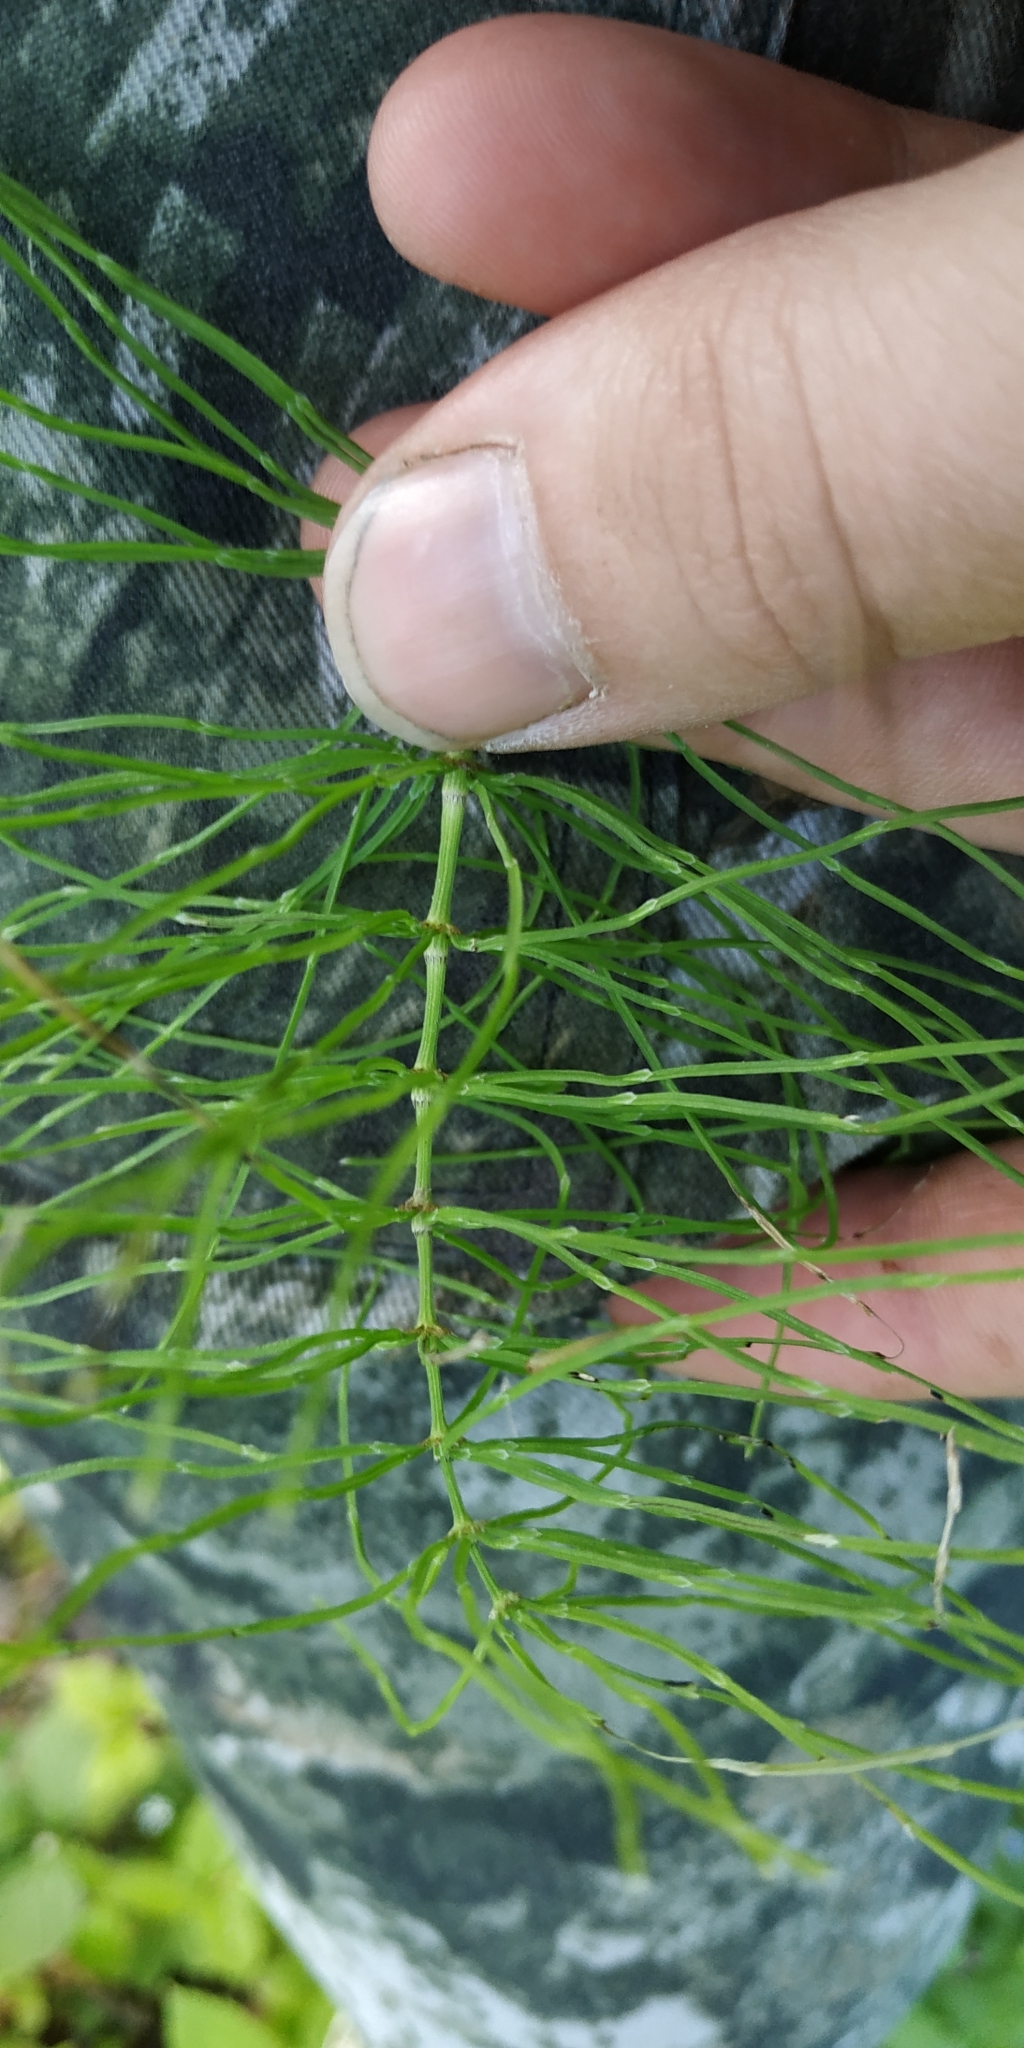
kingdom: Plantae
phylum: Tracheophyta
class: Polypodiopsida
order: Equisetales
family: Equisetaceae
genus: Equisetum
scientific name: Equisetum arvense
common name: Field horsetail
